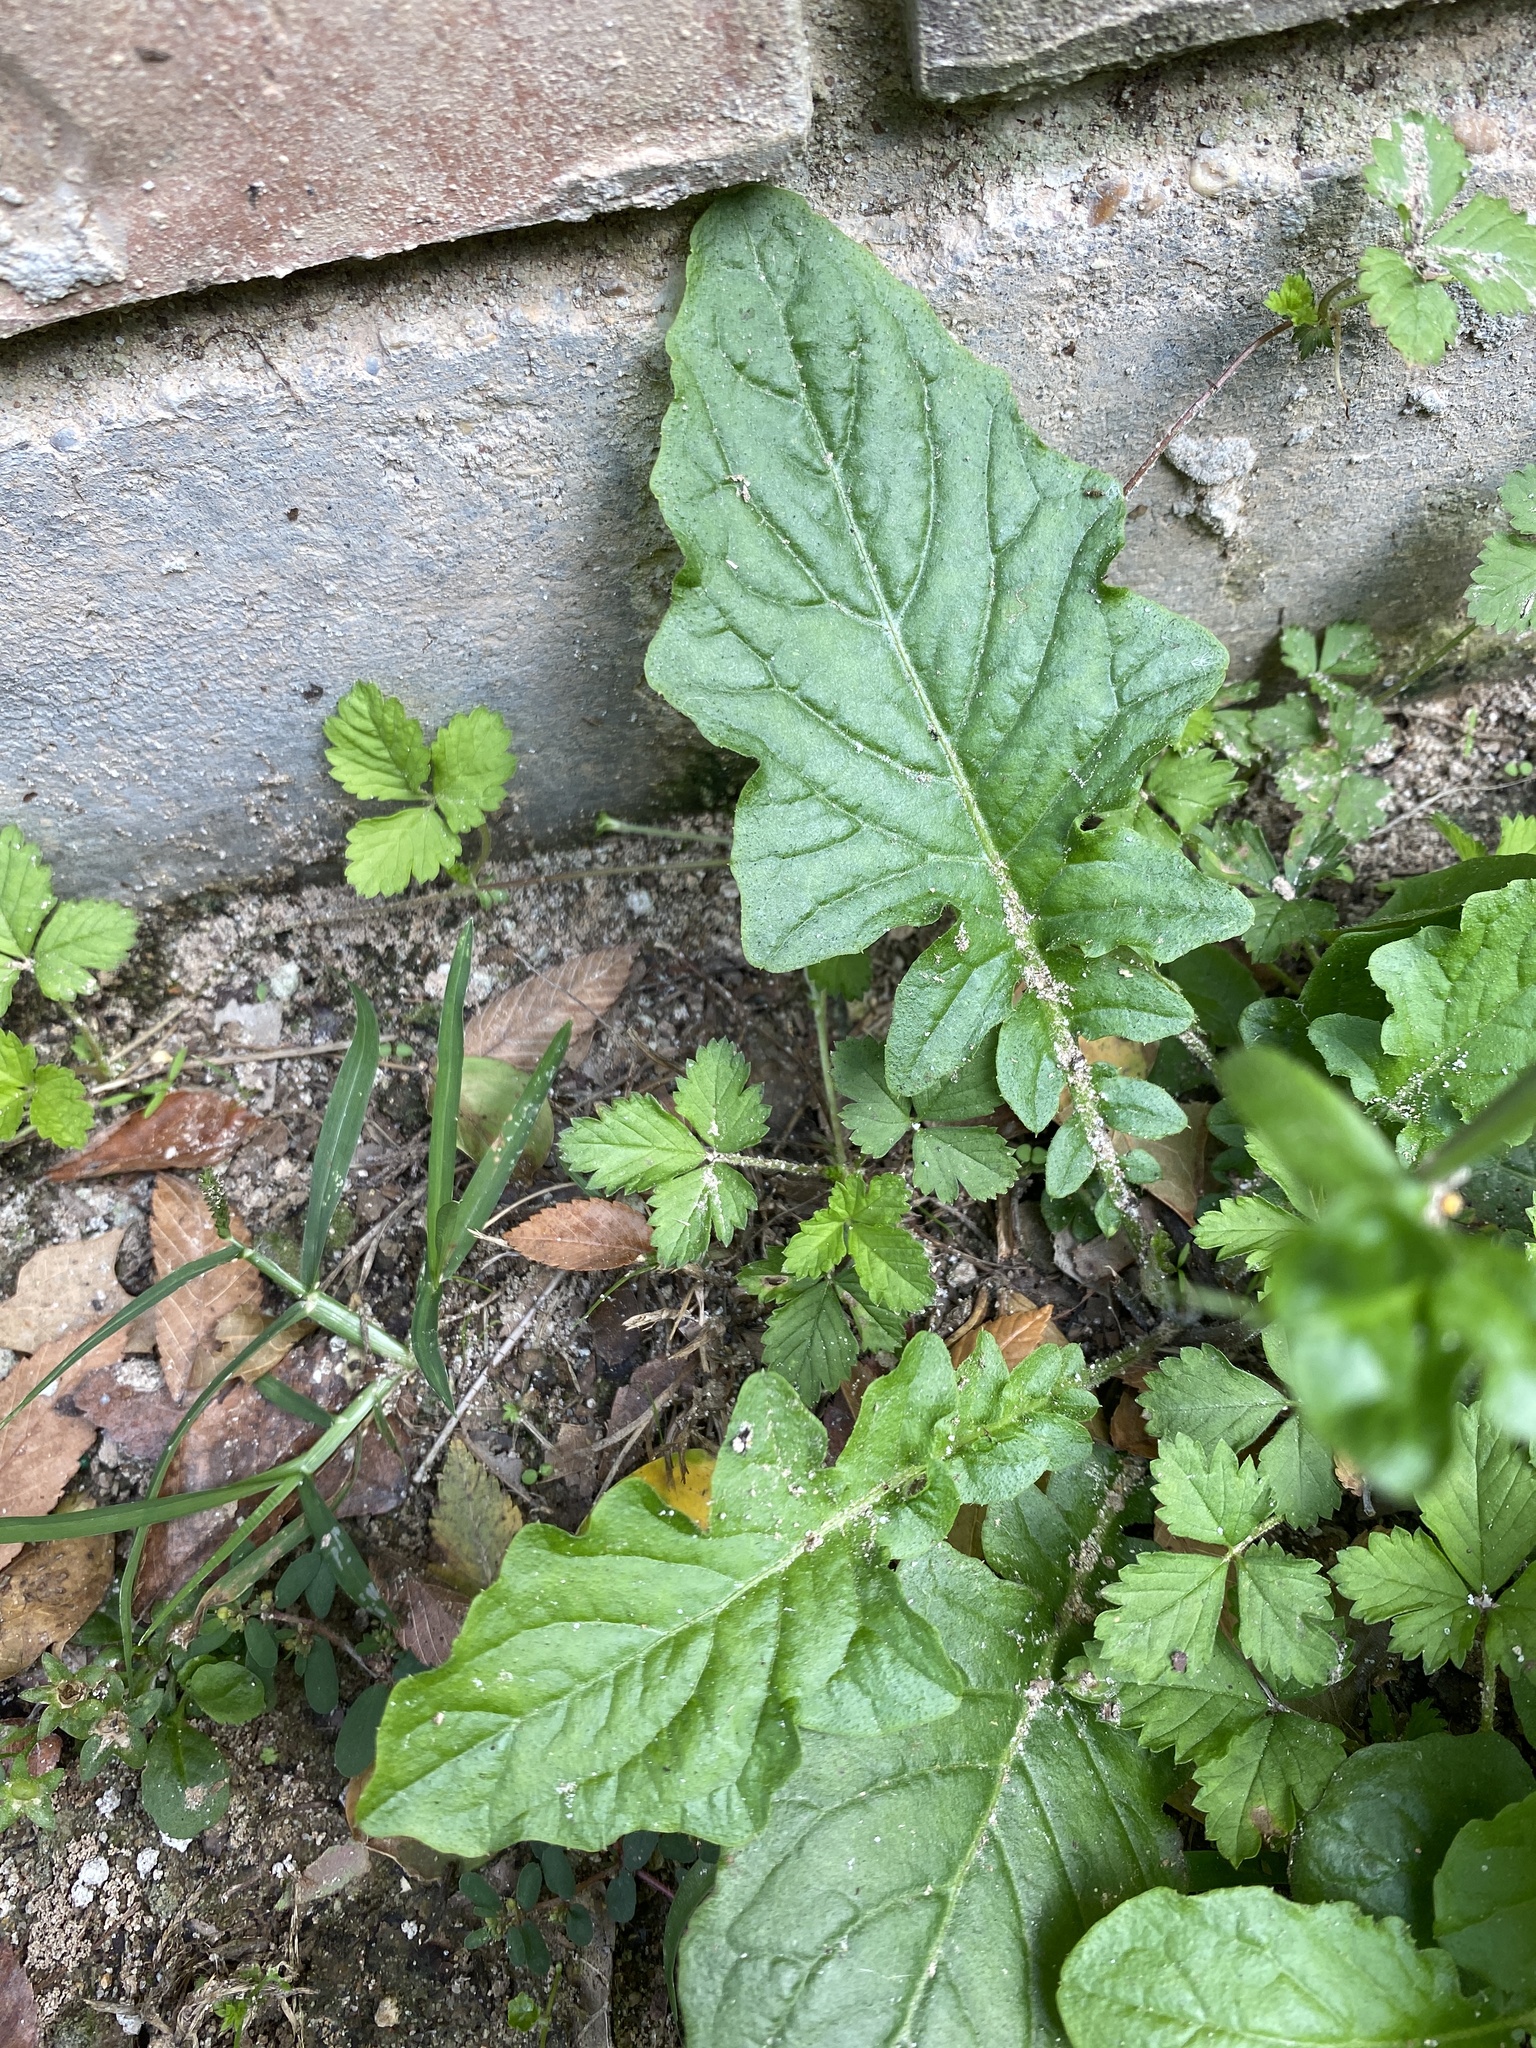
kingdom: Plantae
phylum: Tracheophyta
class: Magnoliopsida
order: Asterales
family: Asteraceae
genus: Youngia
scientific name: Youngia japonica
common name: Oriental false hawksbeard
